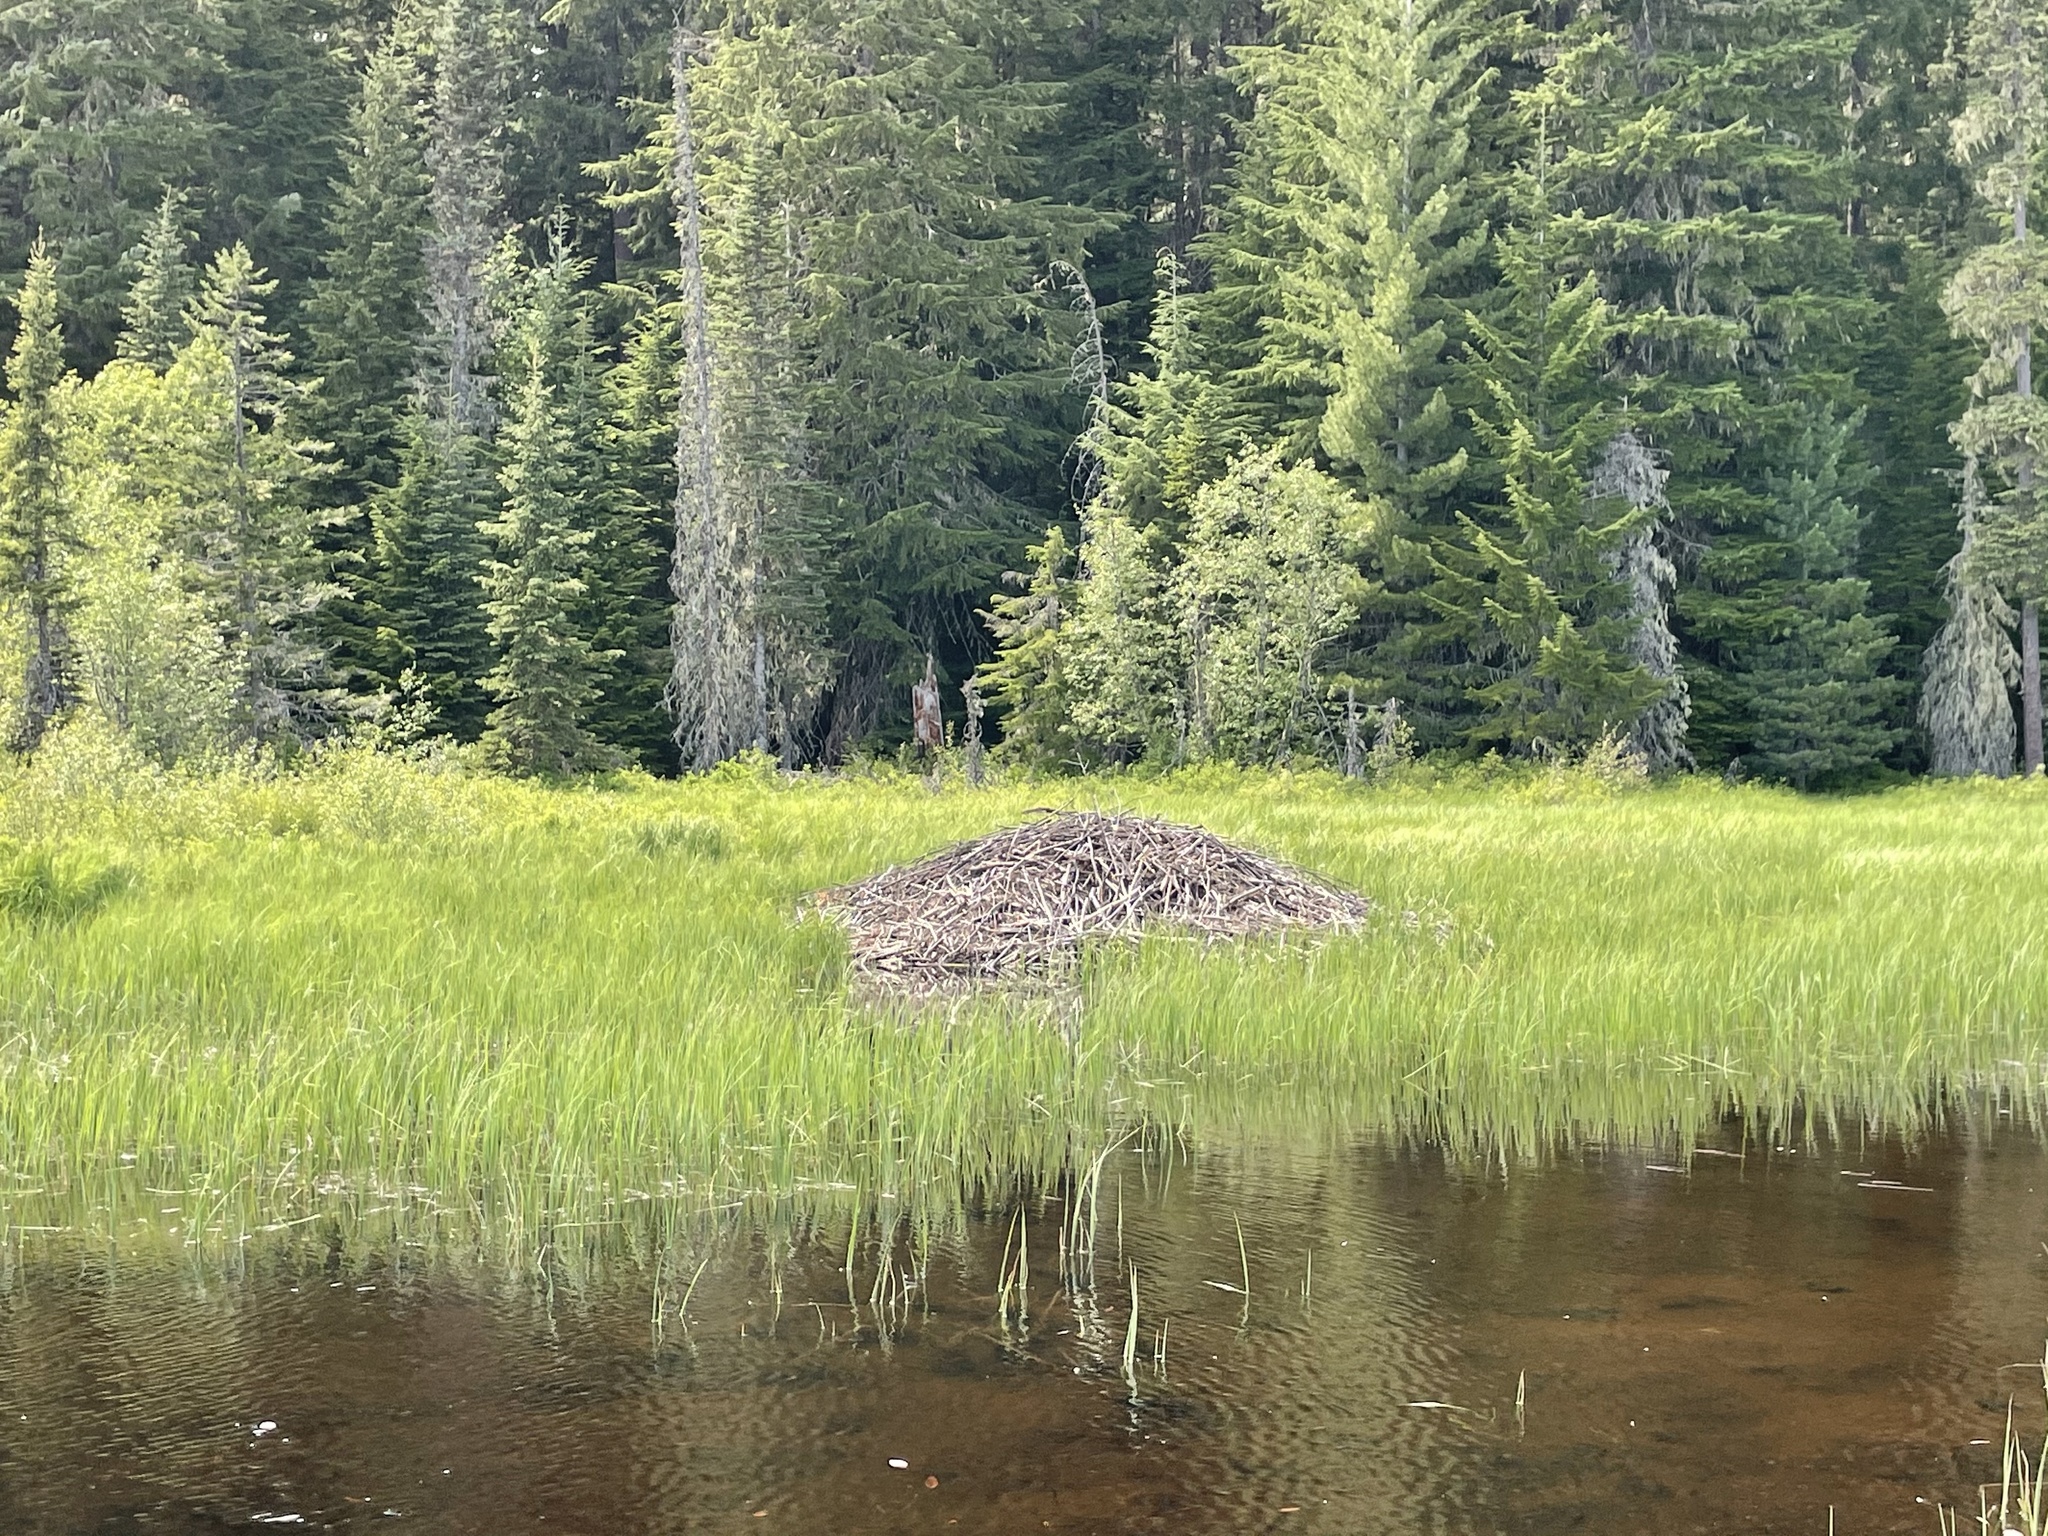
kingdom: Animalia
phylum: Chordata
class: Mammalia
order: Rodentia
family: Castoridae
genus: Castor
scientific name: Castor canadensis
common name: American beaver
